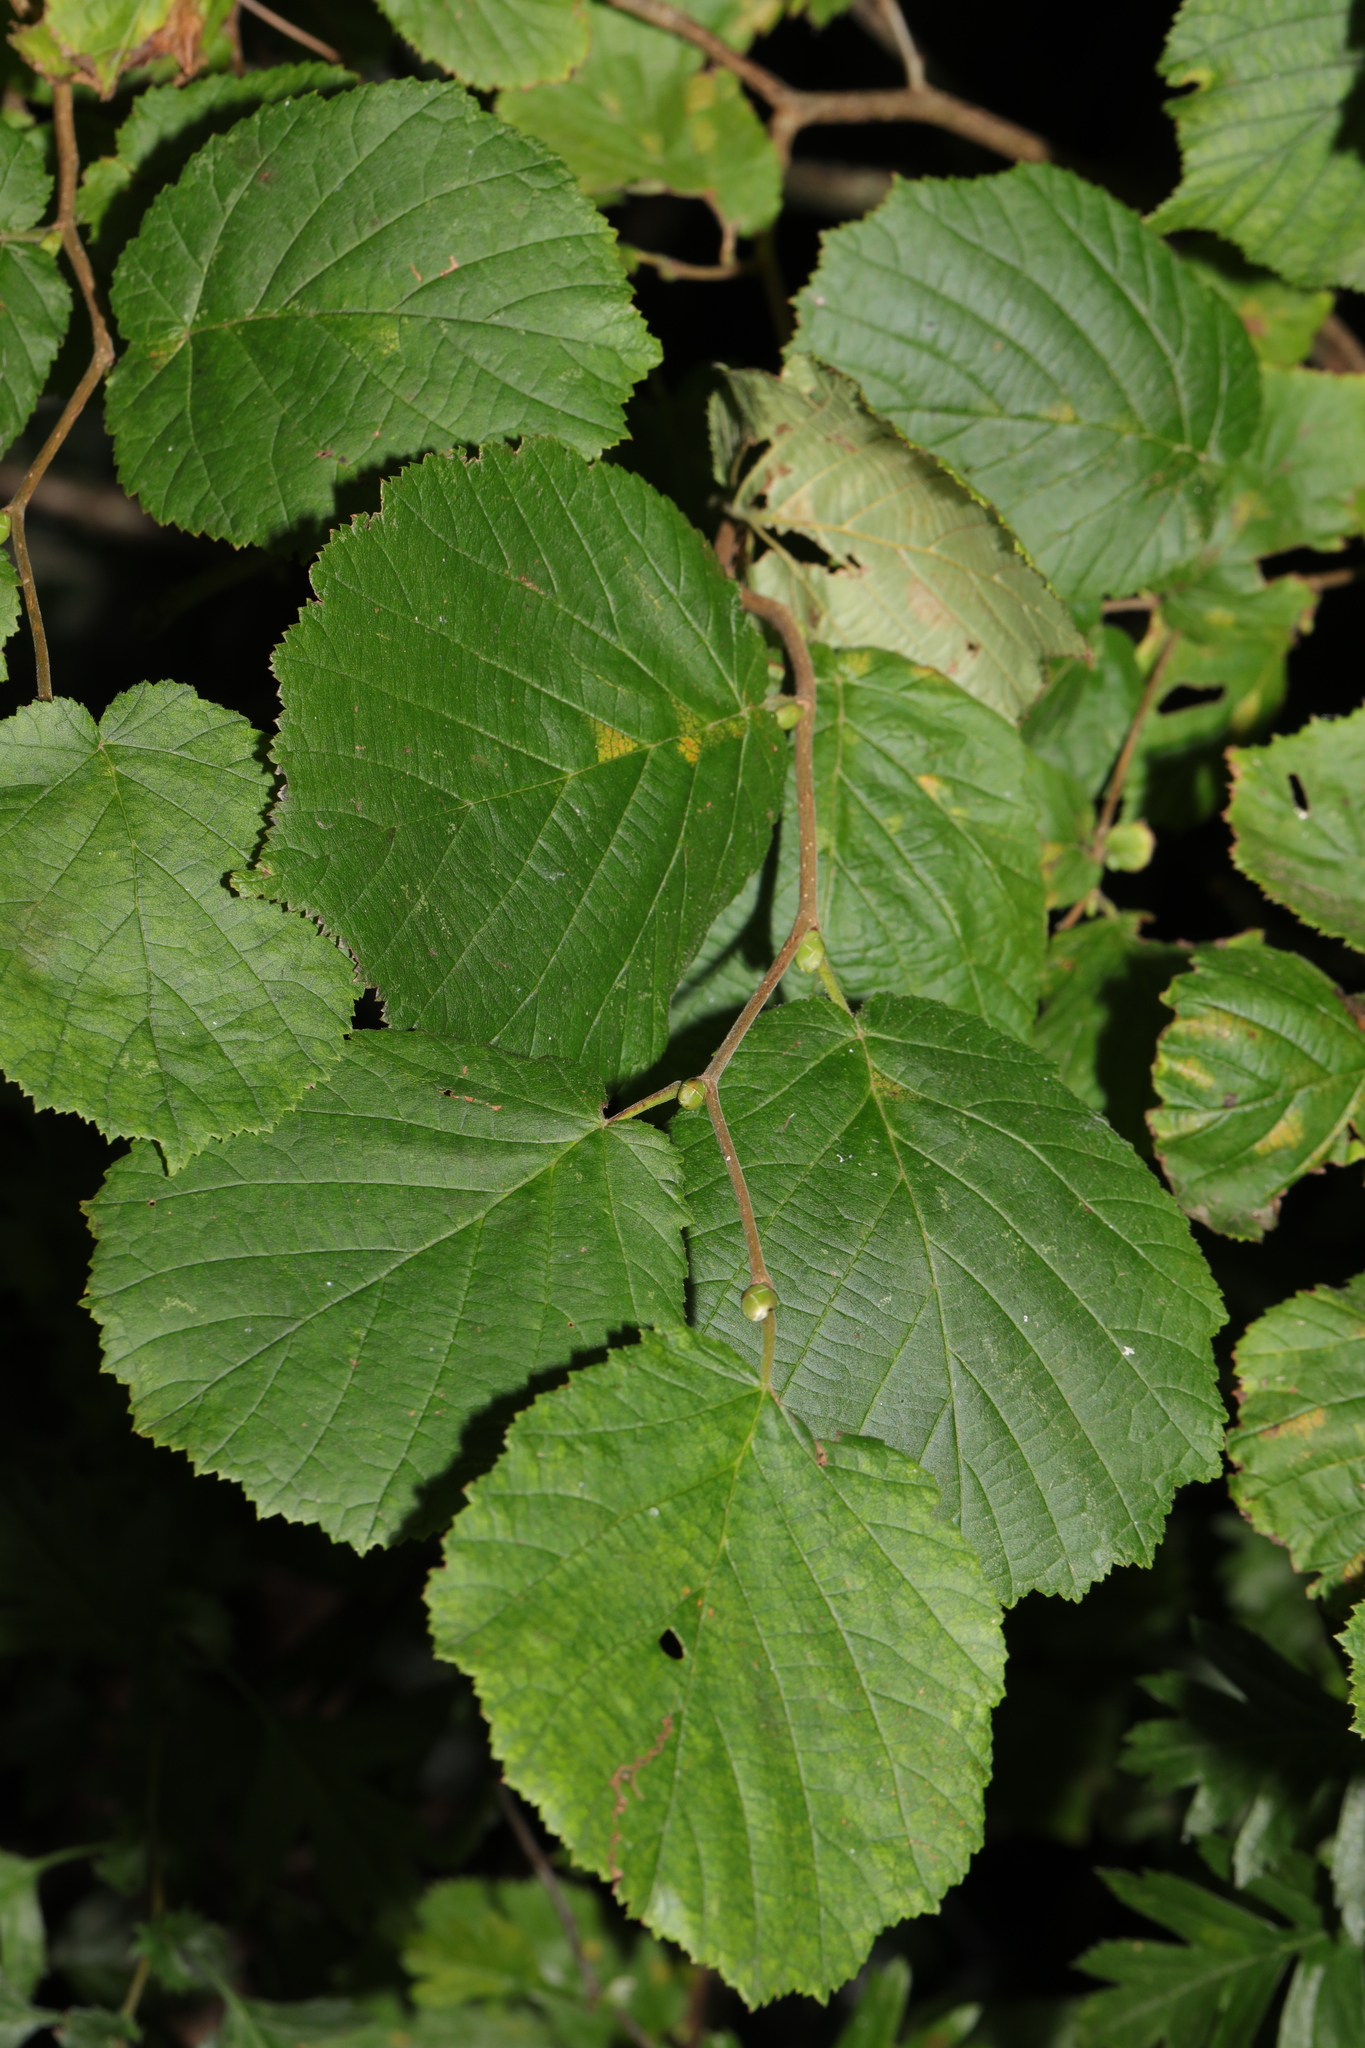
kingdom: Plantae
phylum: Tracheophyta
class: Magnoliopsida
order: Fagales
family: Betulaceae
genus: Corylus
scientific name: Corylus avellana
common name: European hazel
